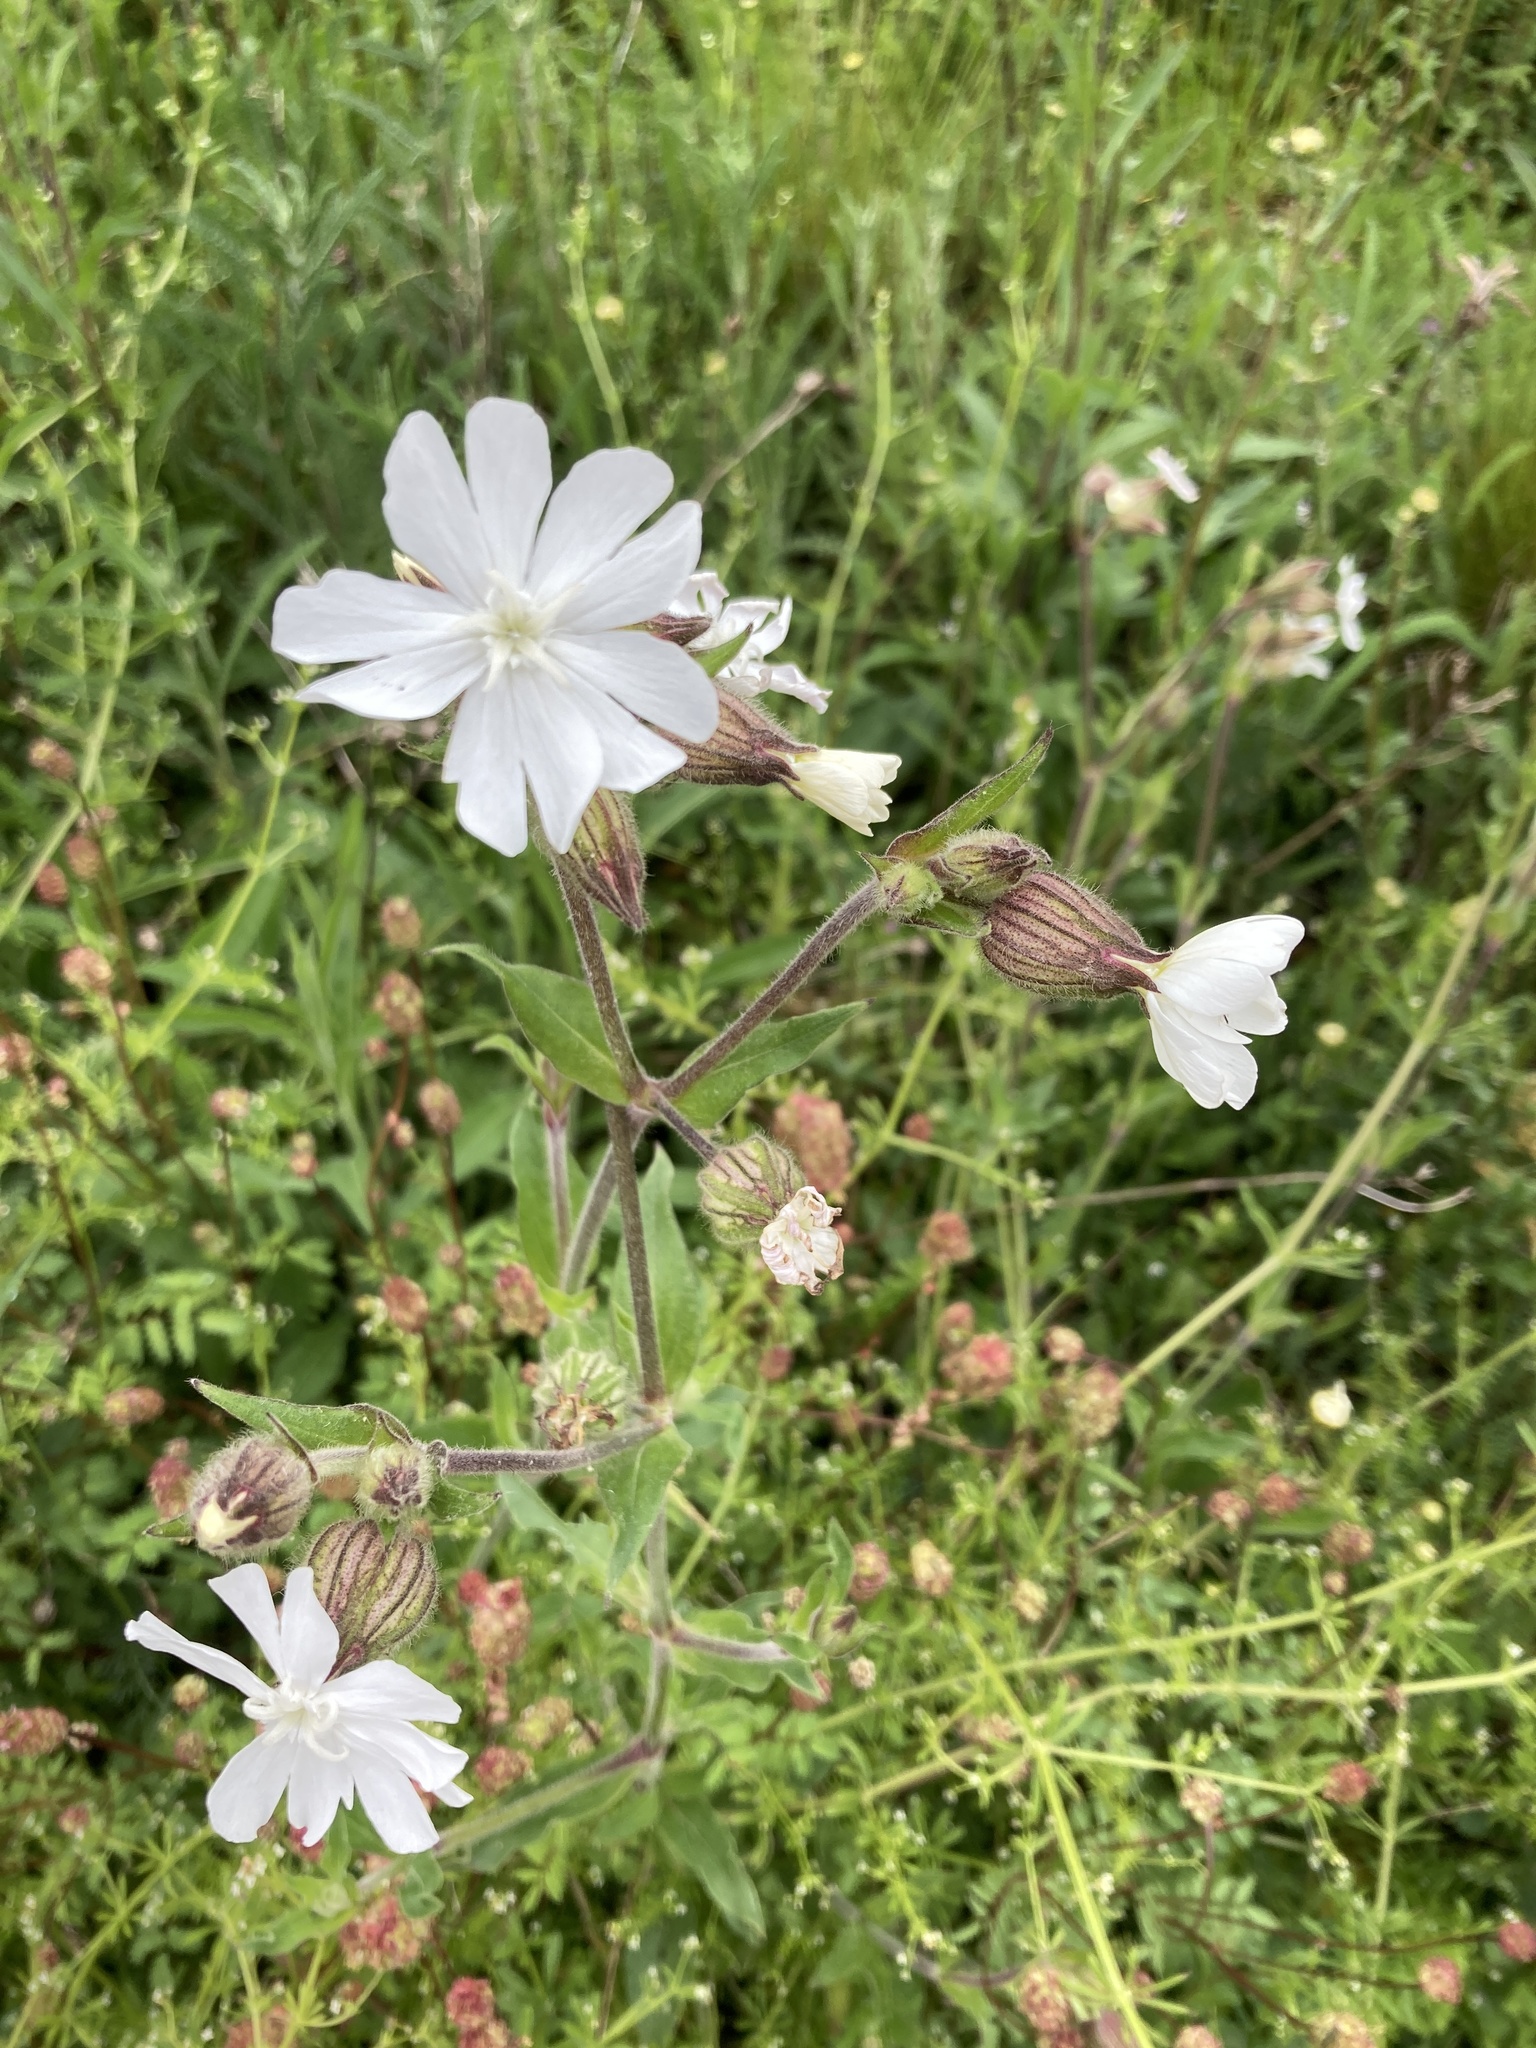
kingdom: Plantae
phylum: Tracheophyta
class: Magnoliopsida
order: Caryophyllales
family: Caryophyllaceae
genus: Silene
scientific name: Silene latifolia
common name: White campion
